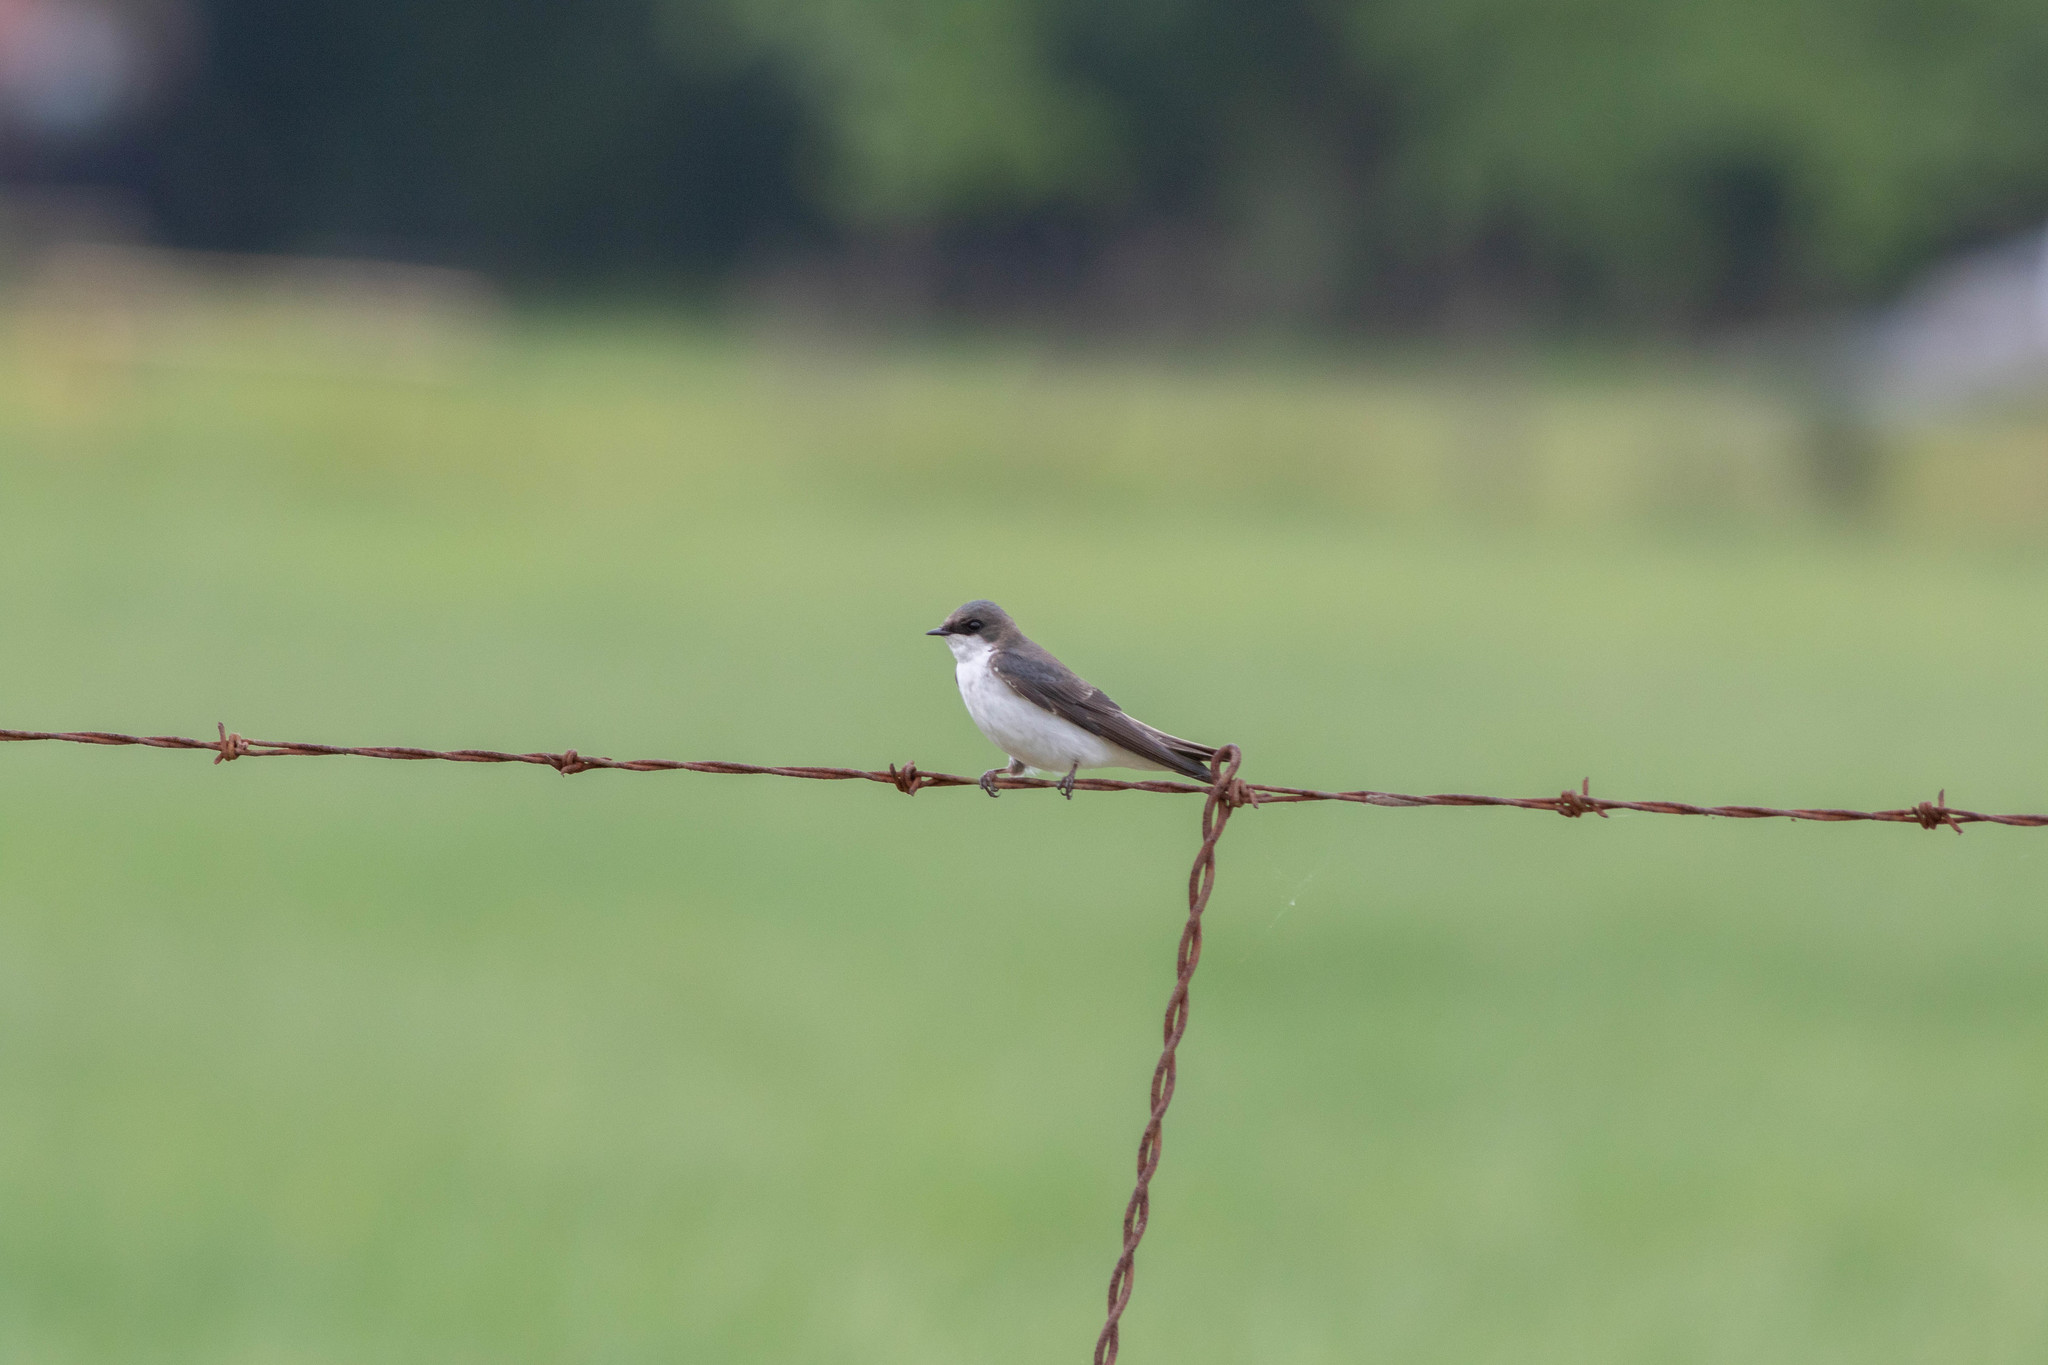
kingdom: Animalia
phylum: Chordata
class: Aves
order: Passeriformes
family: Hirundinidae
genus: Tachycineta
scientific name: Tachycineta bicolor
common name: Tree swallow
